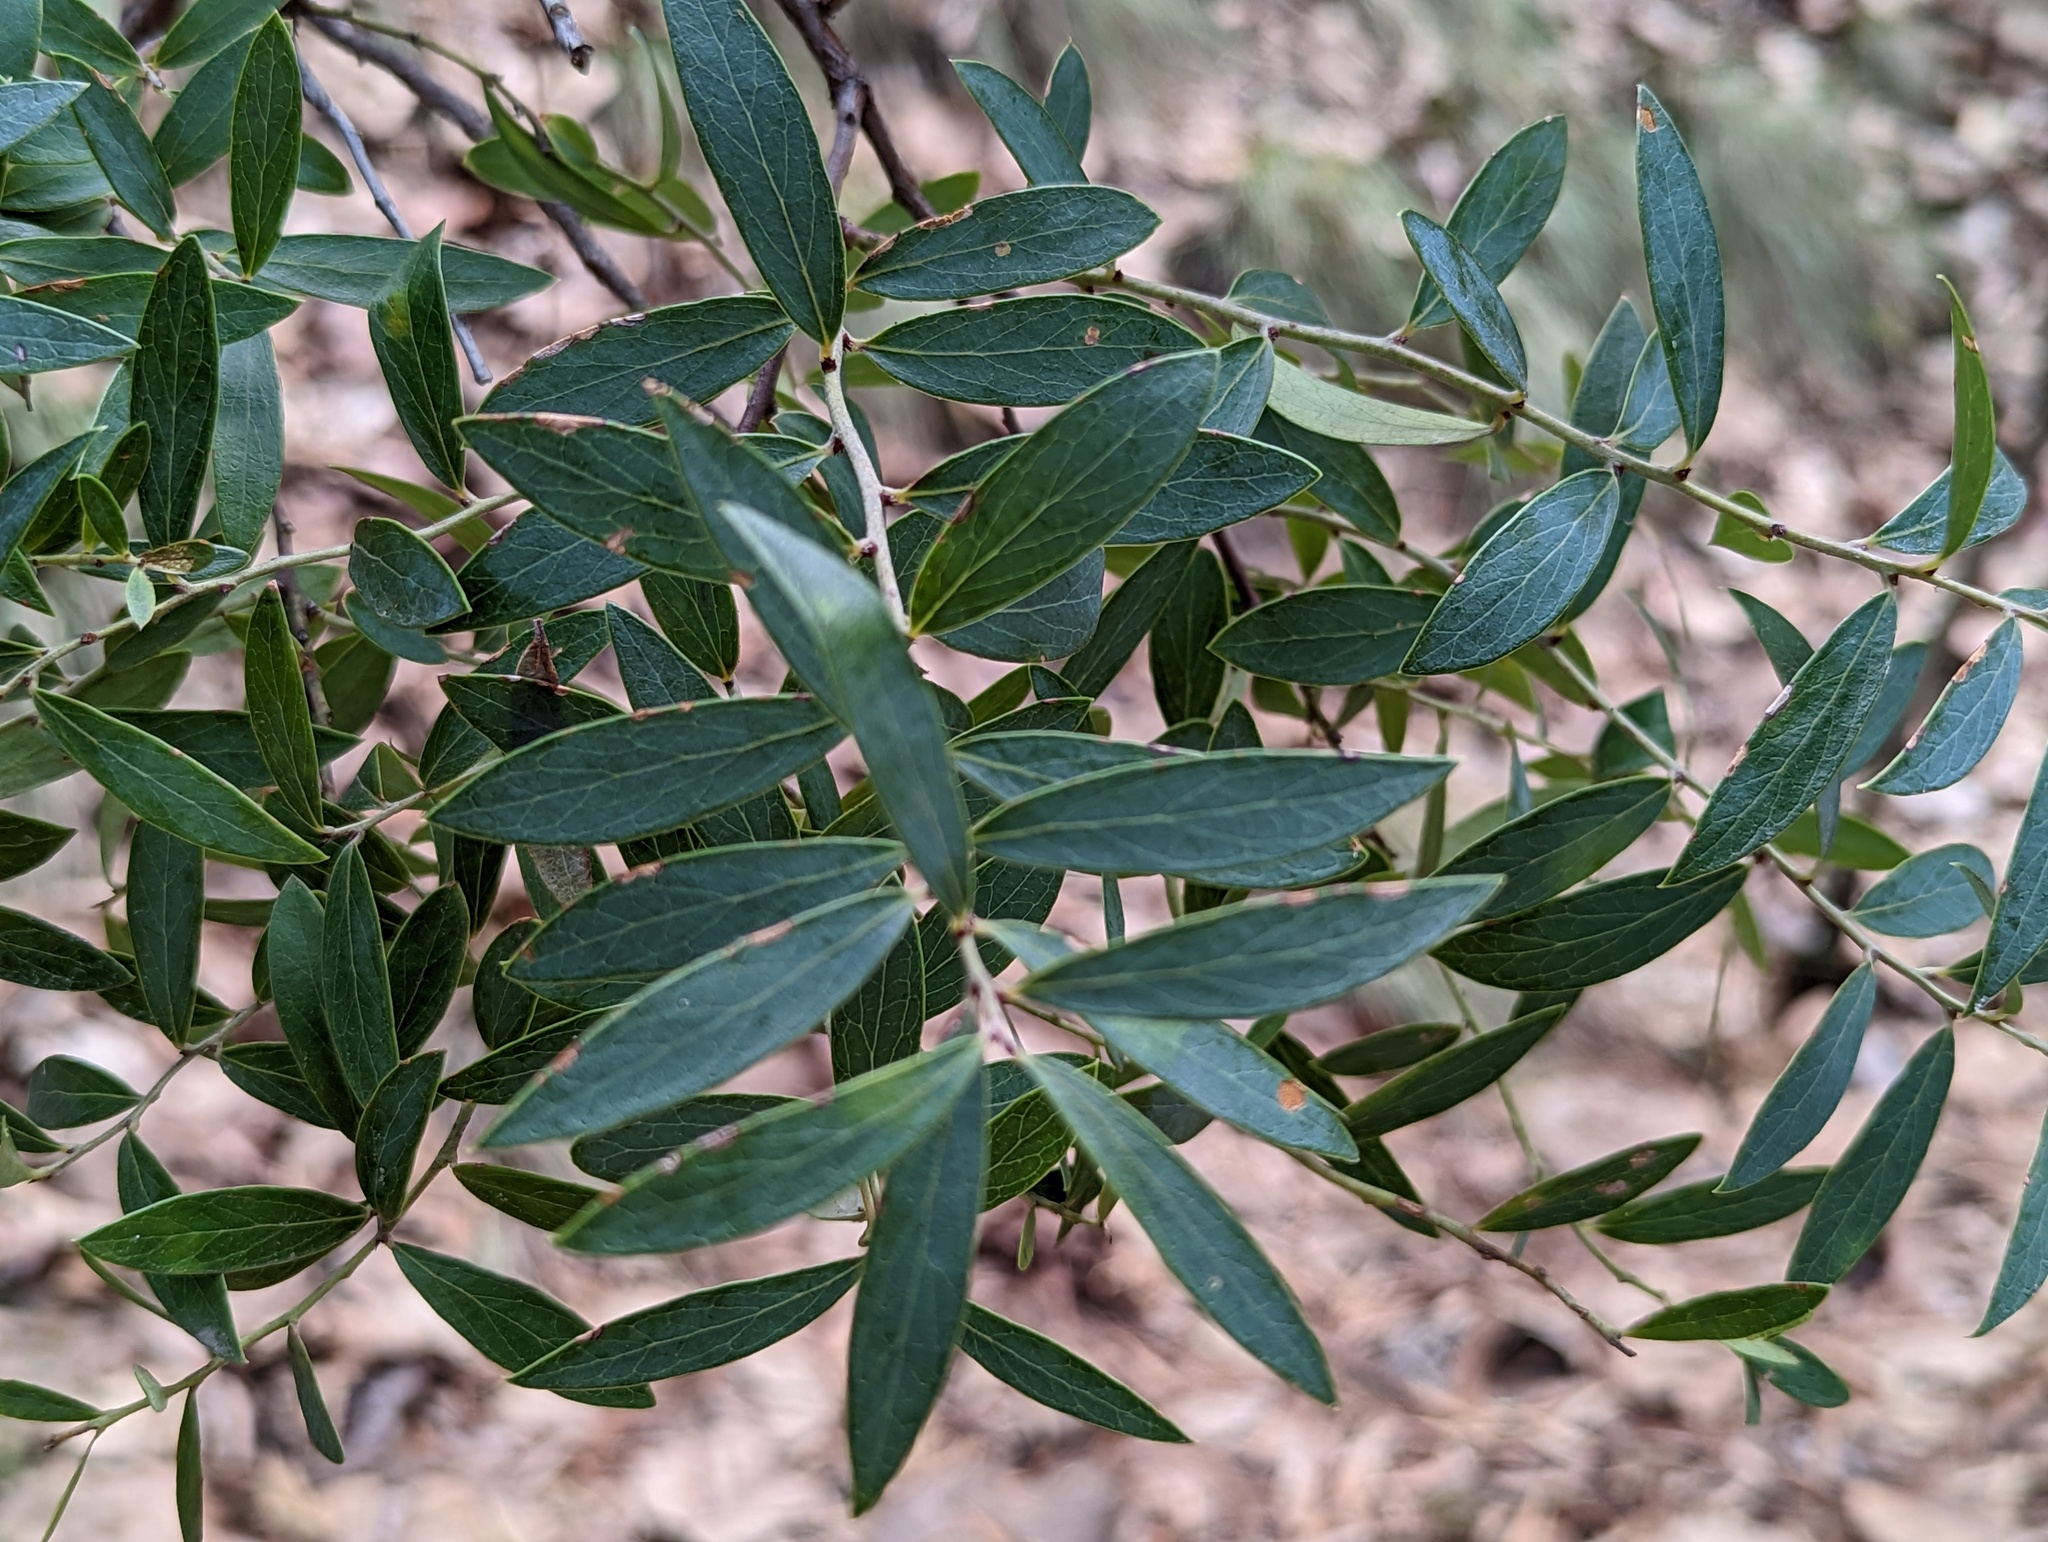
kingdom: Plantae
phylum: Tracheophyta
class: Magnoliopsida
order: Ericales
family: Ericaceae
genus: Vaccinium
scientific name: Vaccinium stenophyllum
